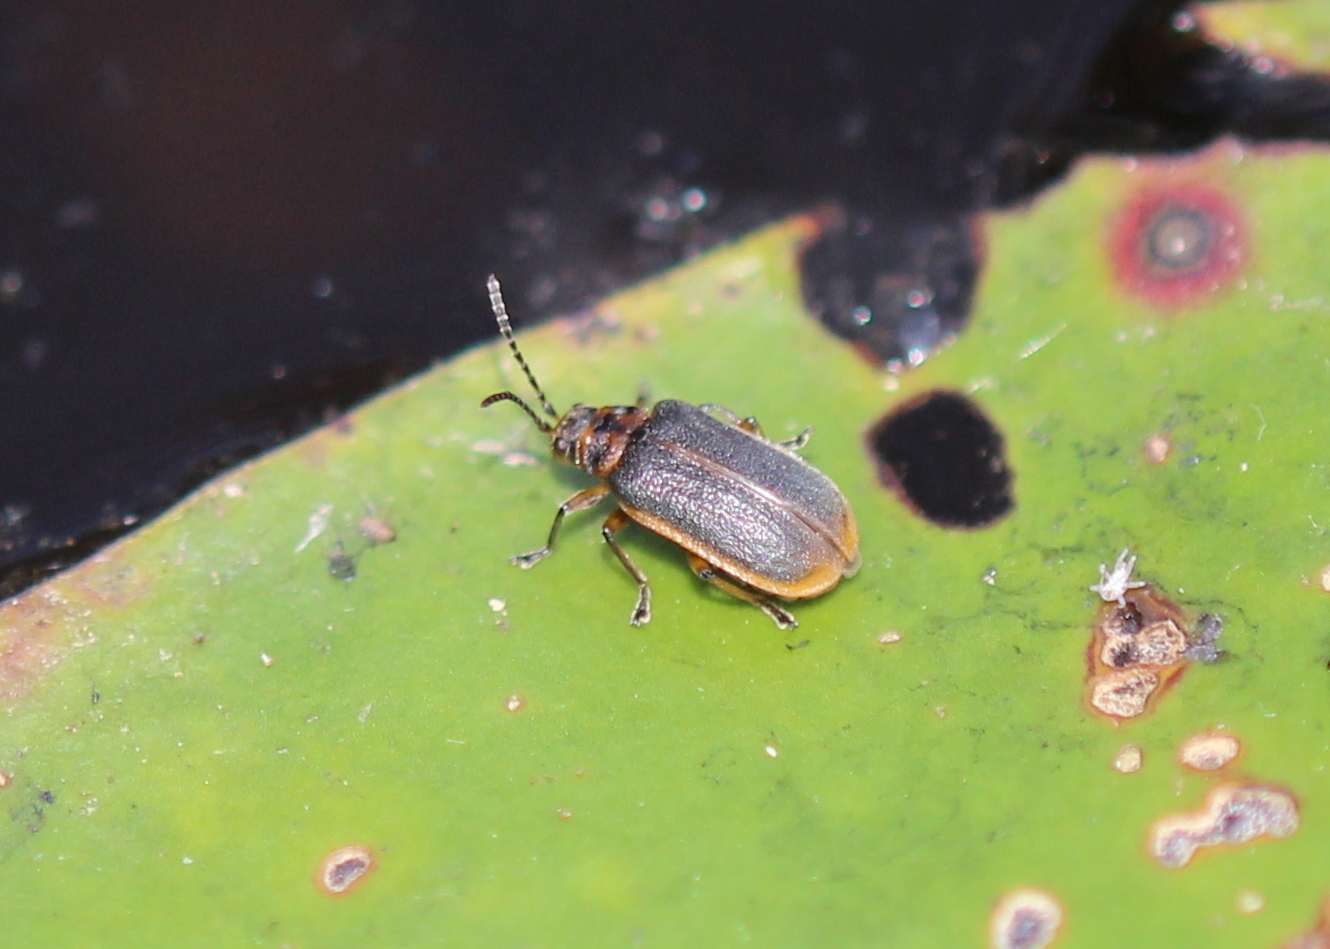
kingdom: Animalia
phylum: Arthropoda
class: Insecta
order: Coleoptera
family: Chrysomelidae
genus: Galerucella
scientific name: Galerucella nymphaeae
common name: Leaf beetle
